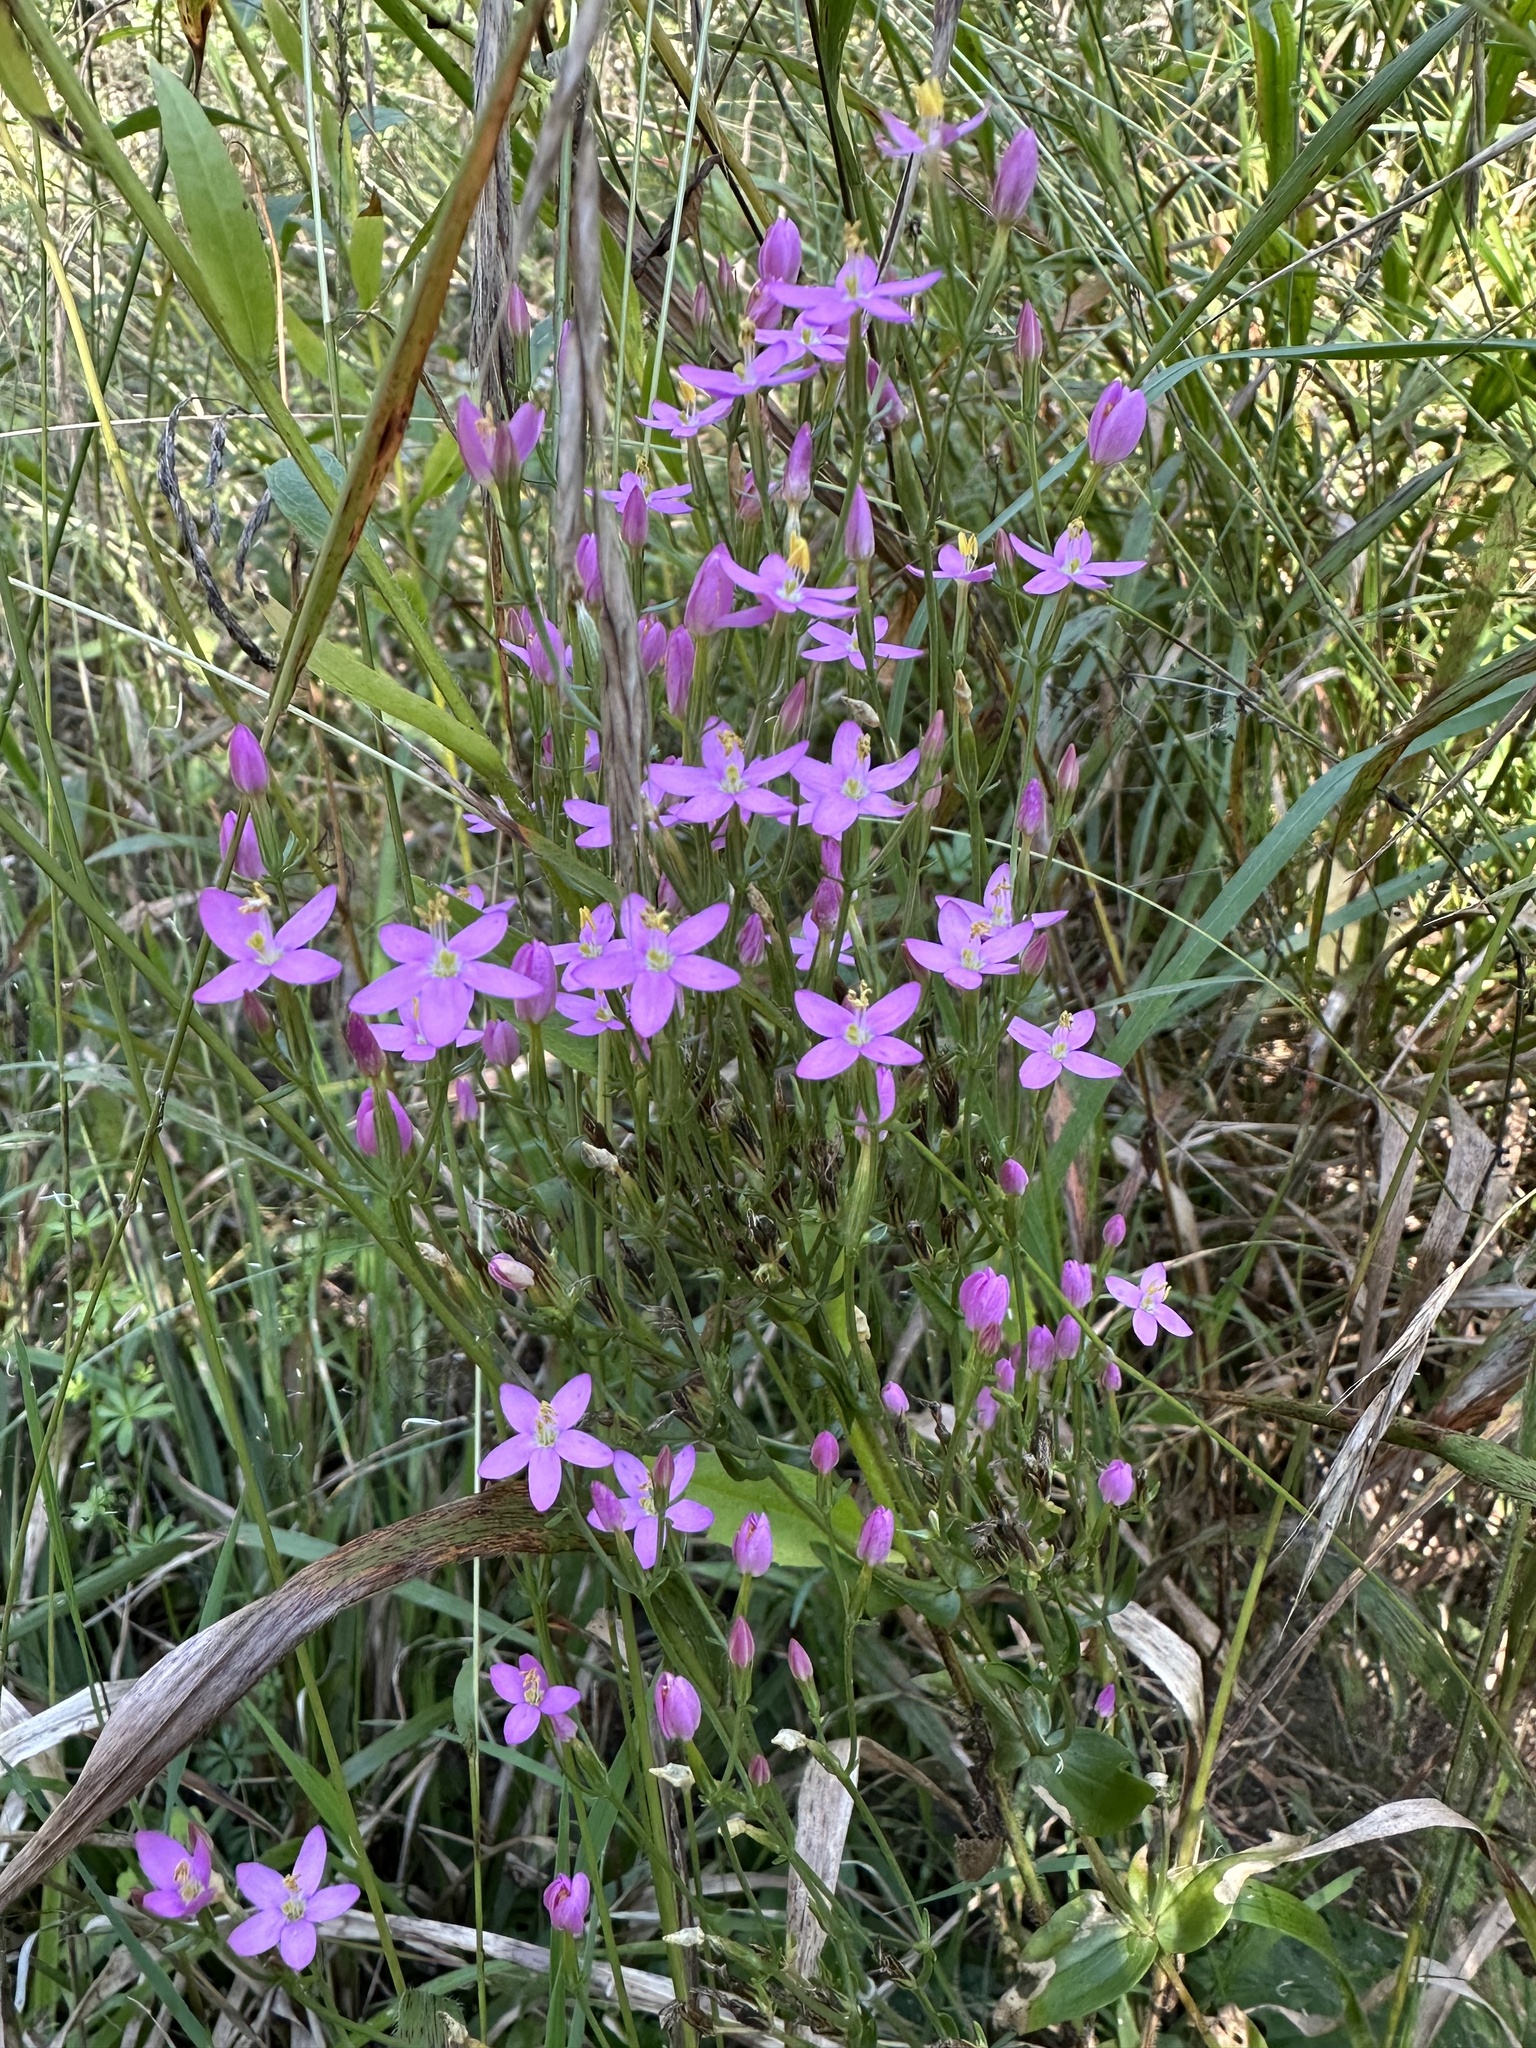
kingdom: Plantae
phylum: Tracheophyta
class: Magnoliopsida
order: Gentianales
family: Gentianaceae
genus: Centaurium
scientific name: Centaurium erythraea
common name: Common centaury
